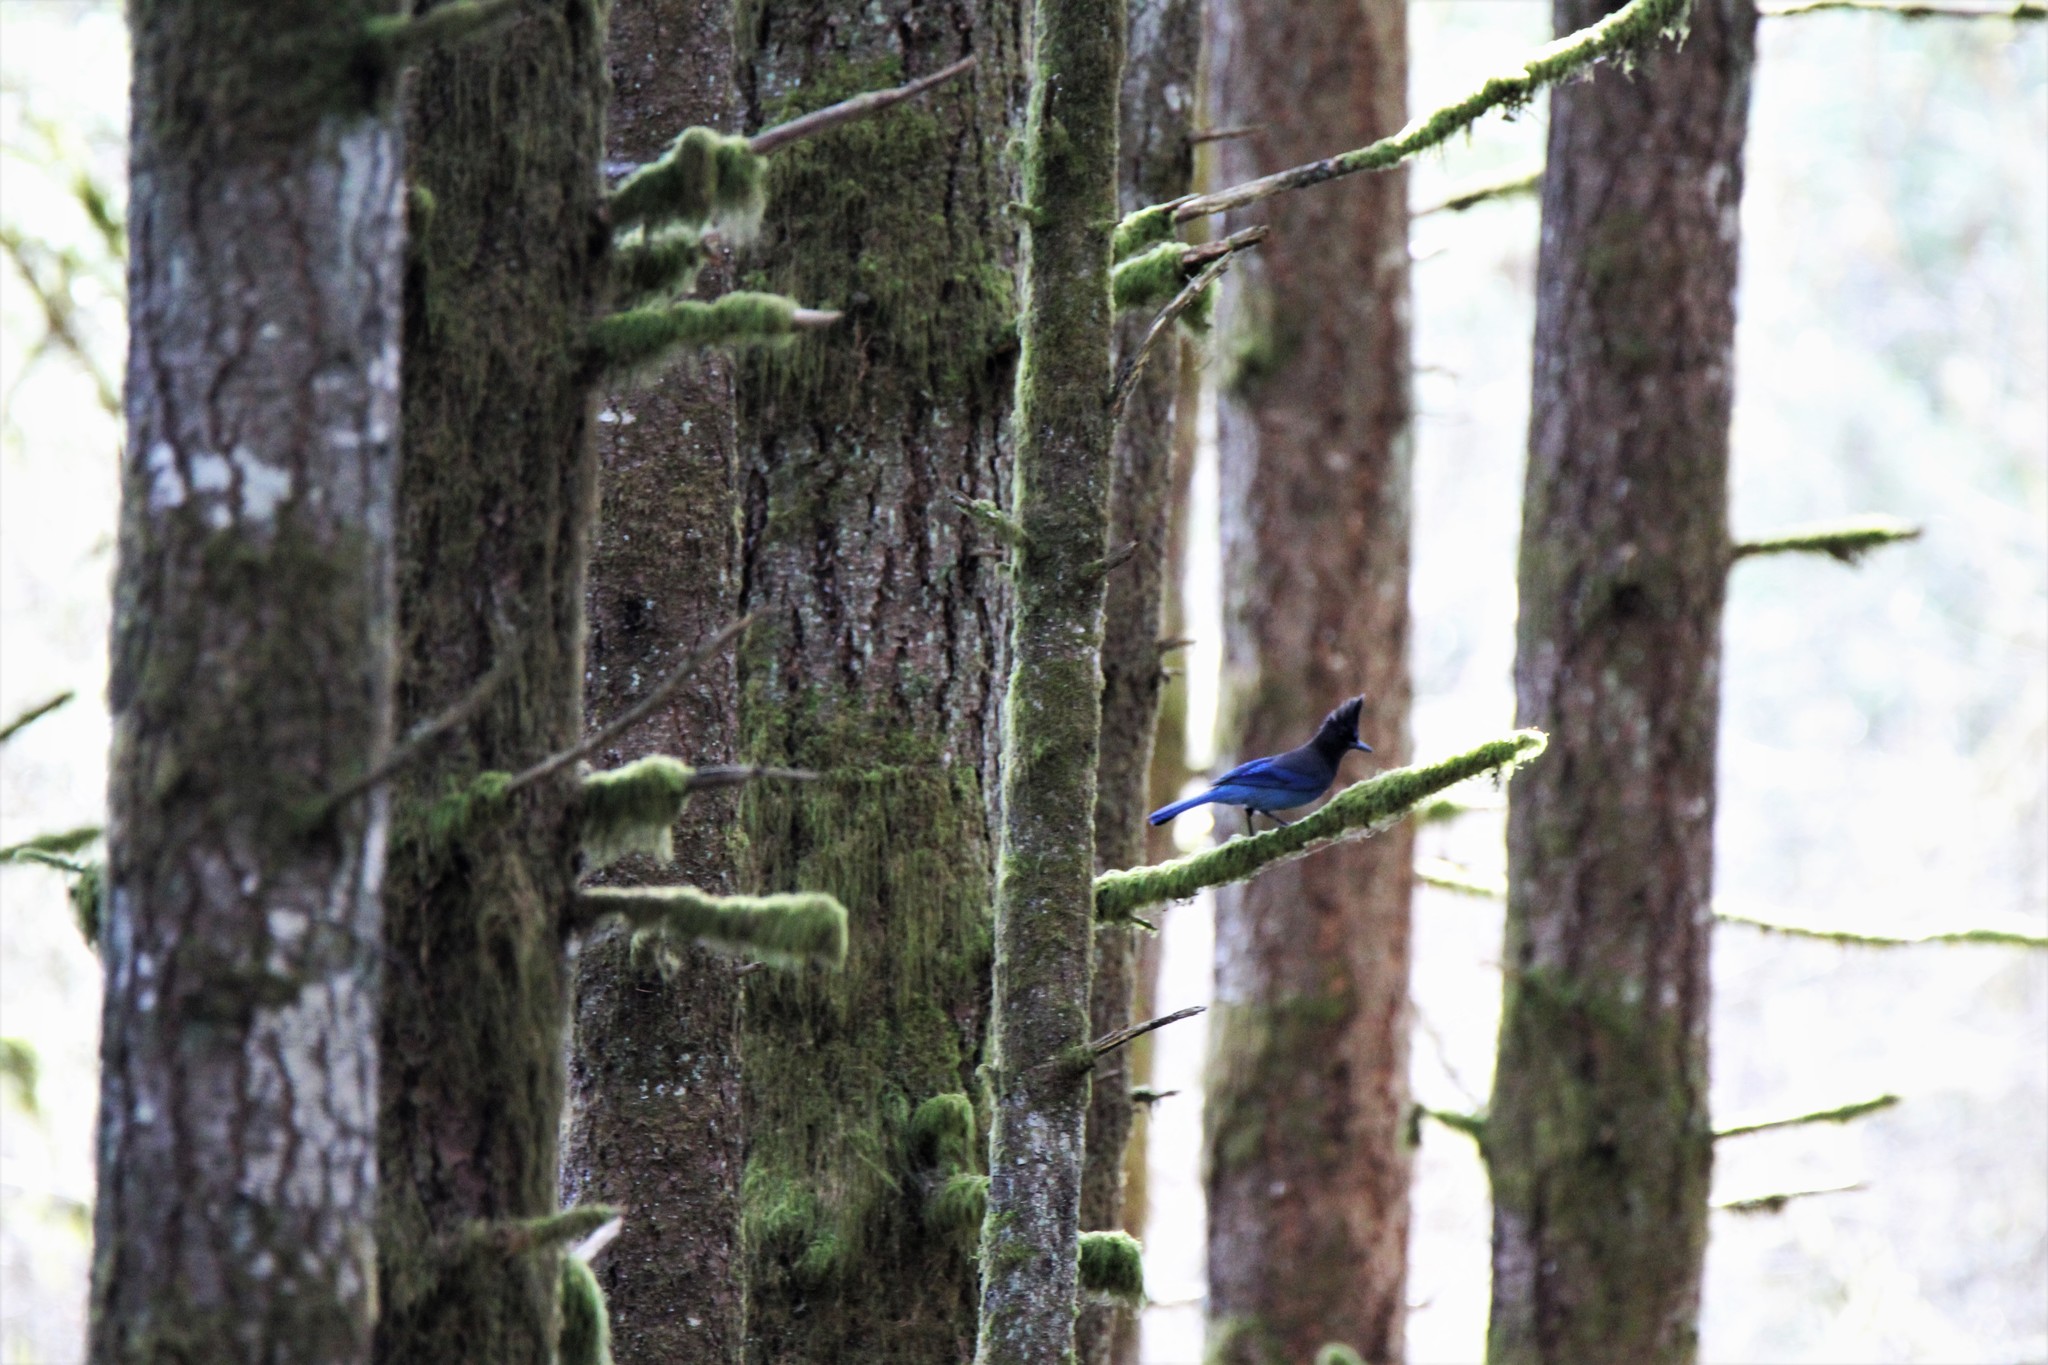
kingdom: Animalia
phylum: Chordata
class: Aves
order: Passeriformes
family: Corvidae
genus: Cyanocitta
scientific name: Cyanocitta stelleri
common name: Steller's jay
